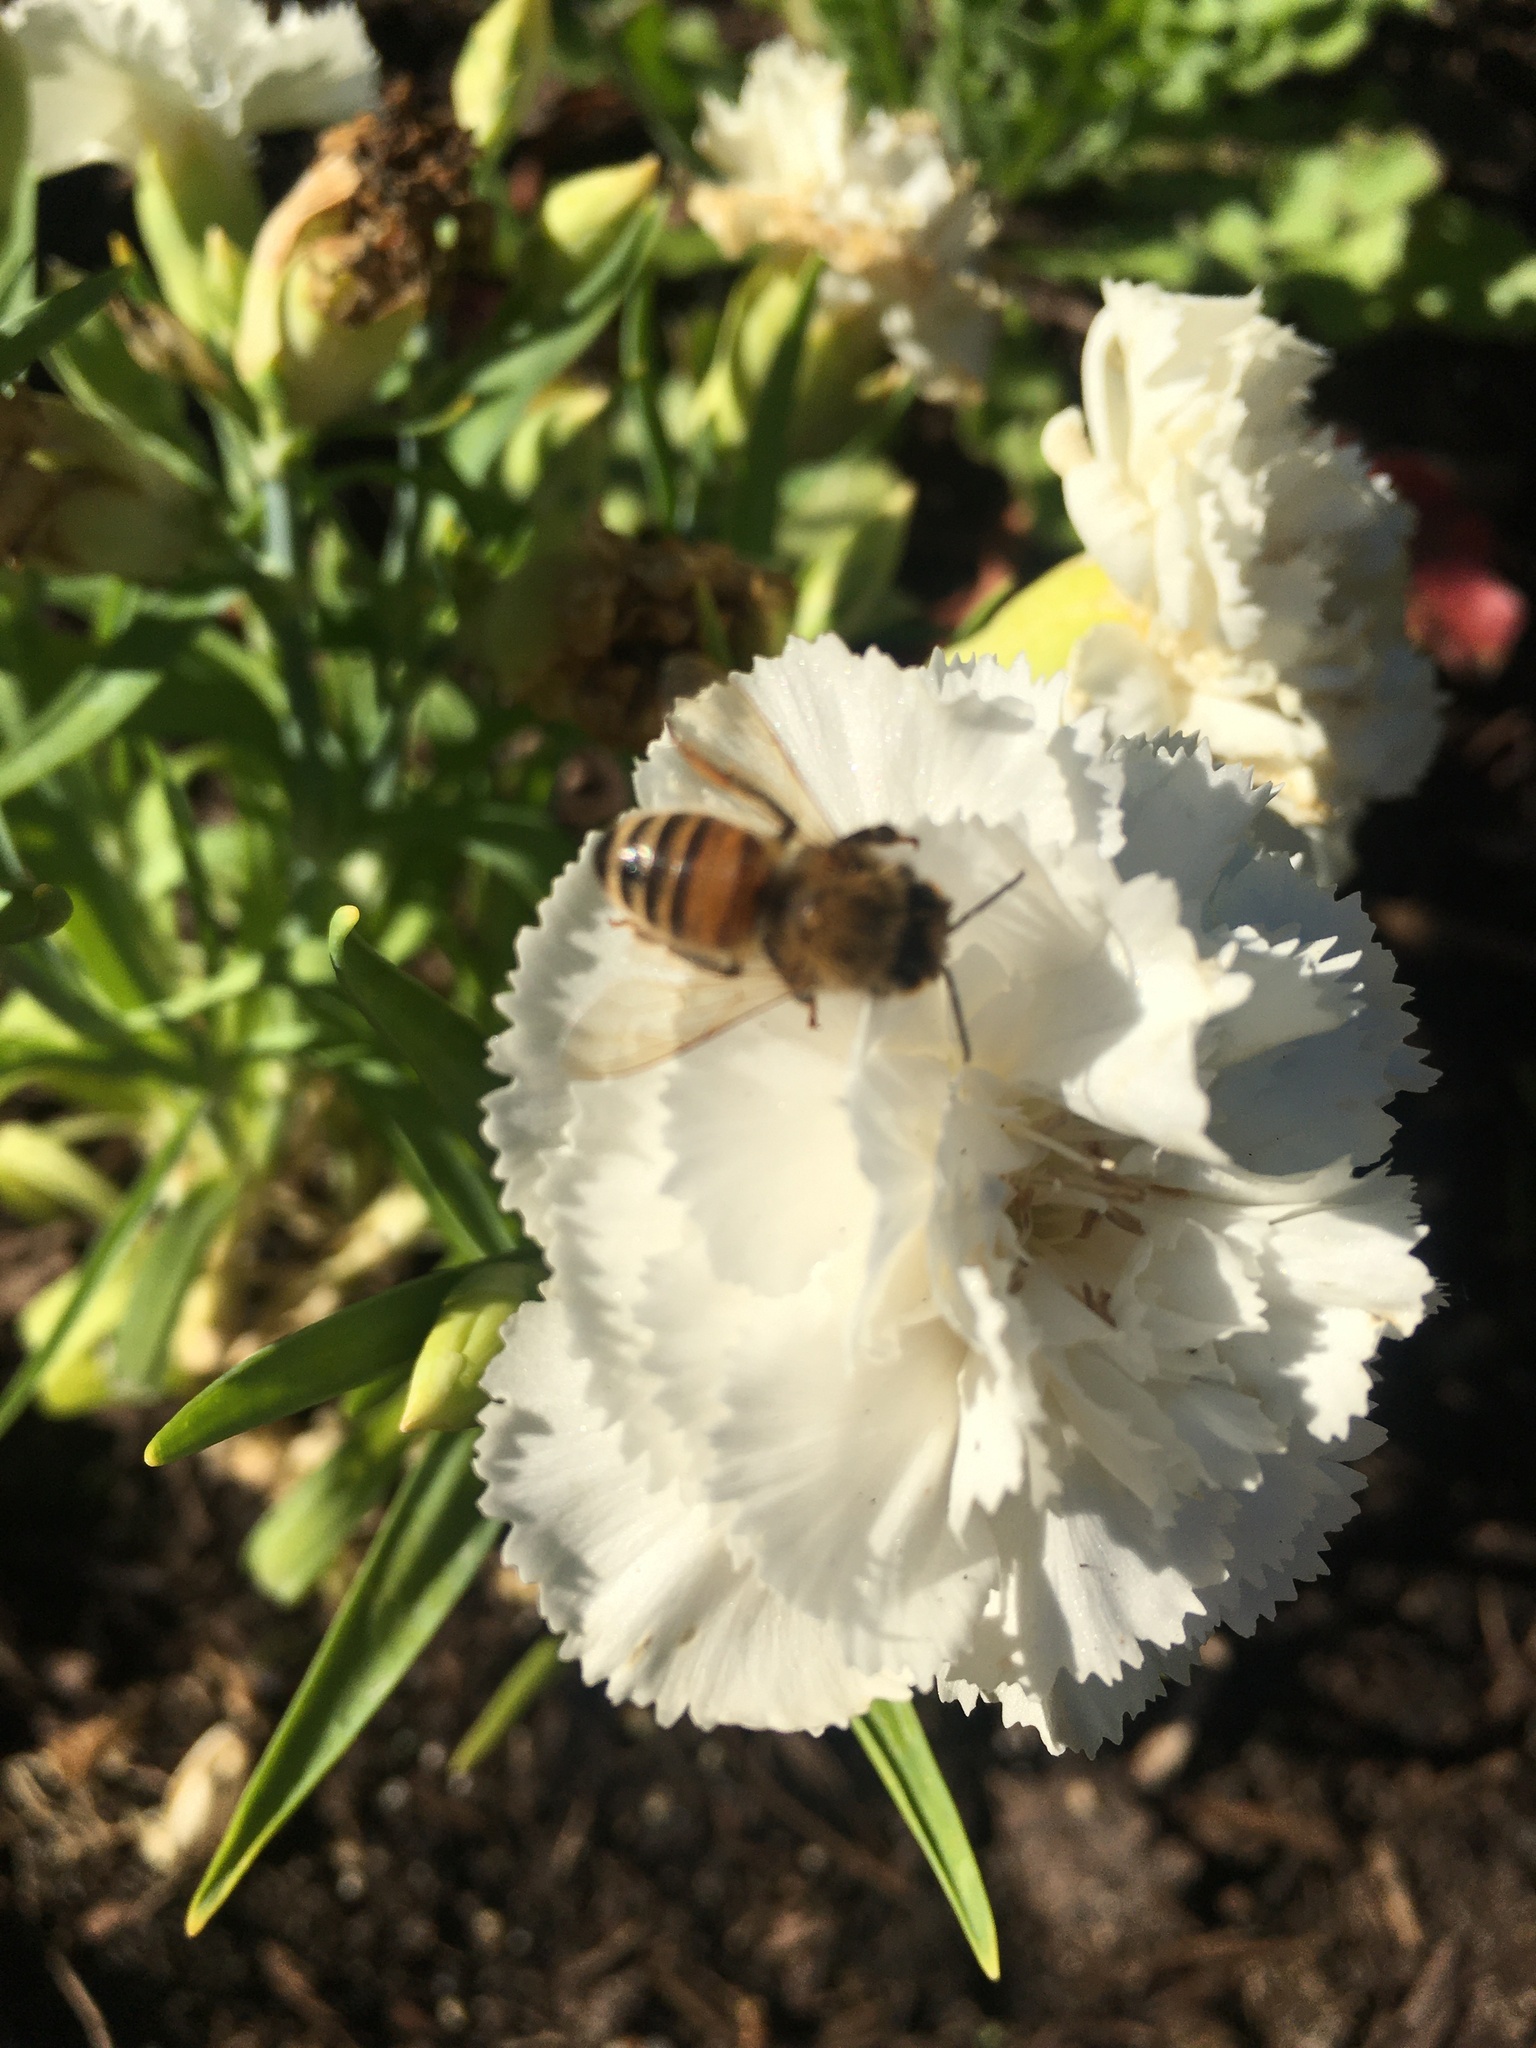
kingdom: Animalia
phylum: Arthropoda
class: Insecta
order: Hymenoptera
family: Apidae
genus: Apis
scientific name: Apis mellifera
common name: Honey bee
